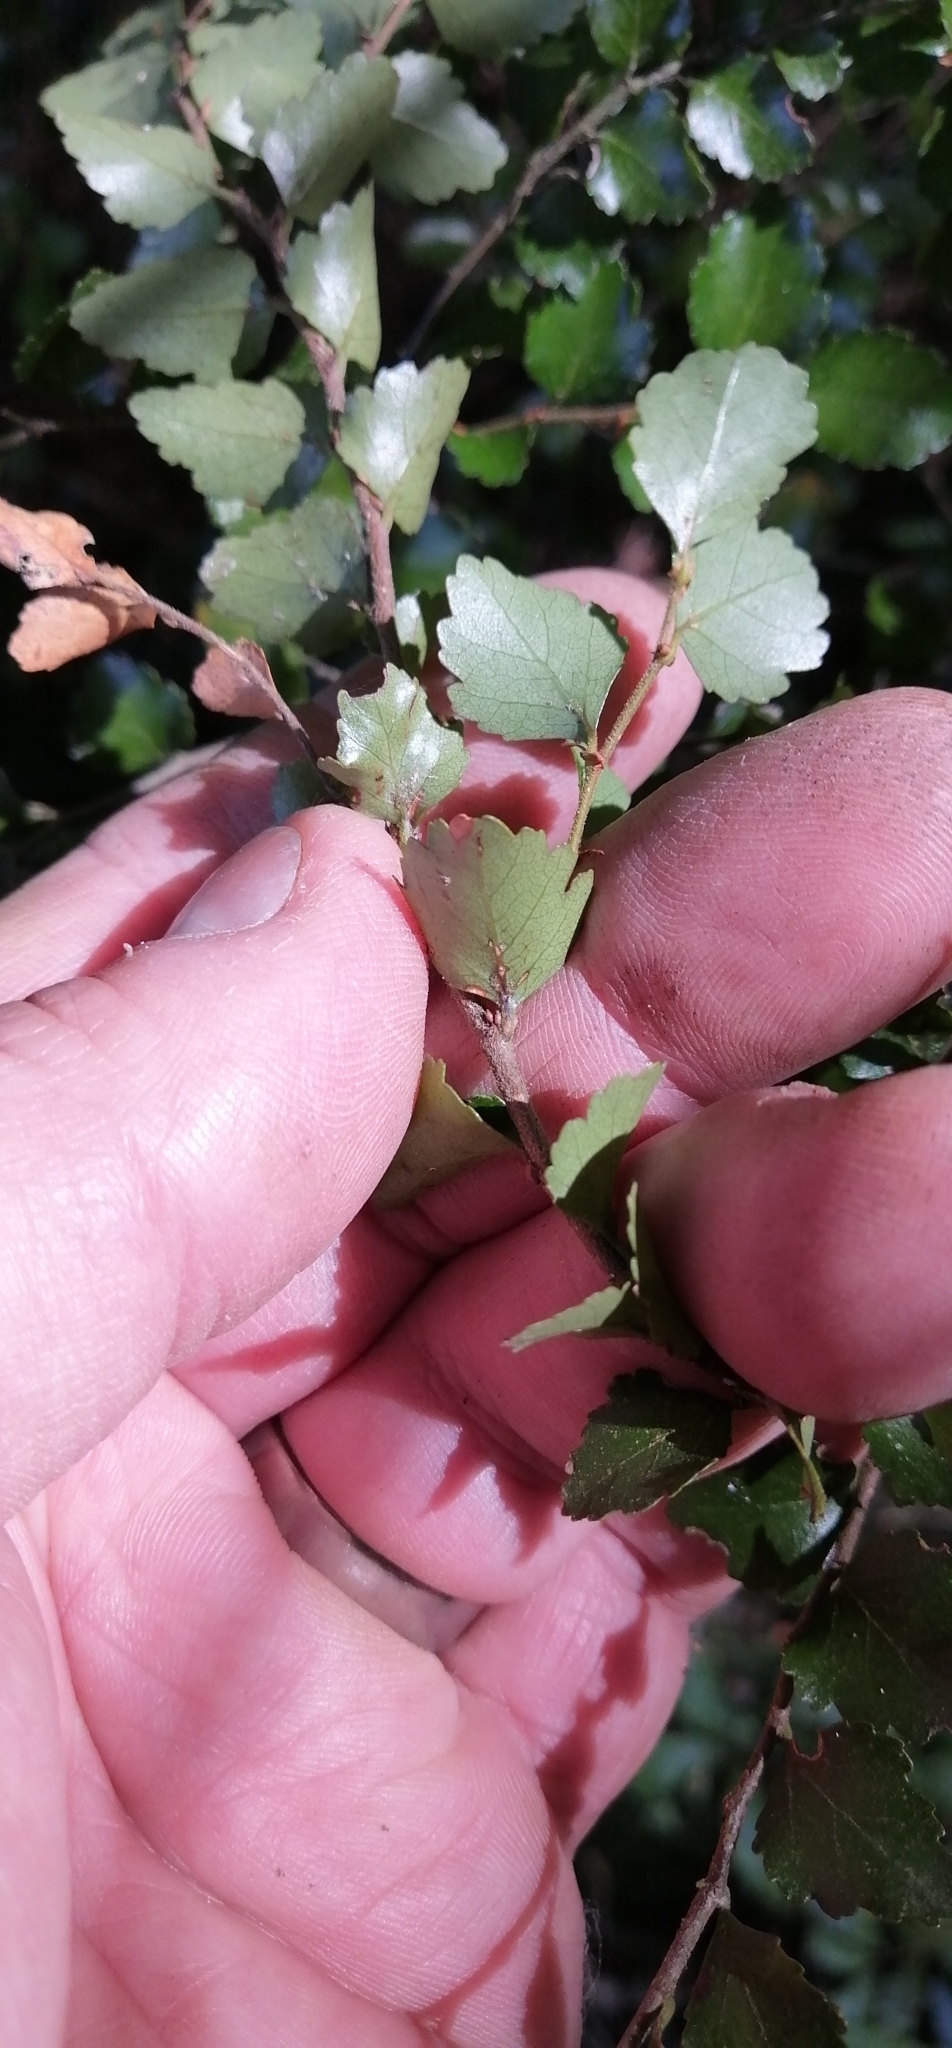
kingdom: Plantae
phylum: Tracheophyta
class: Magnoliopsida
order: Fagales
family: Nothofagaceae
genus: Nothofagus
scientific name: Nothofagus menziesii
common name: Silver beech
